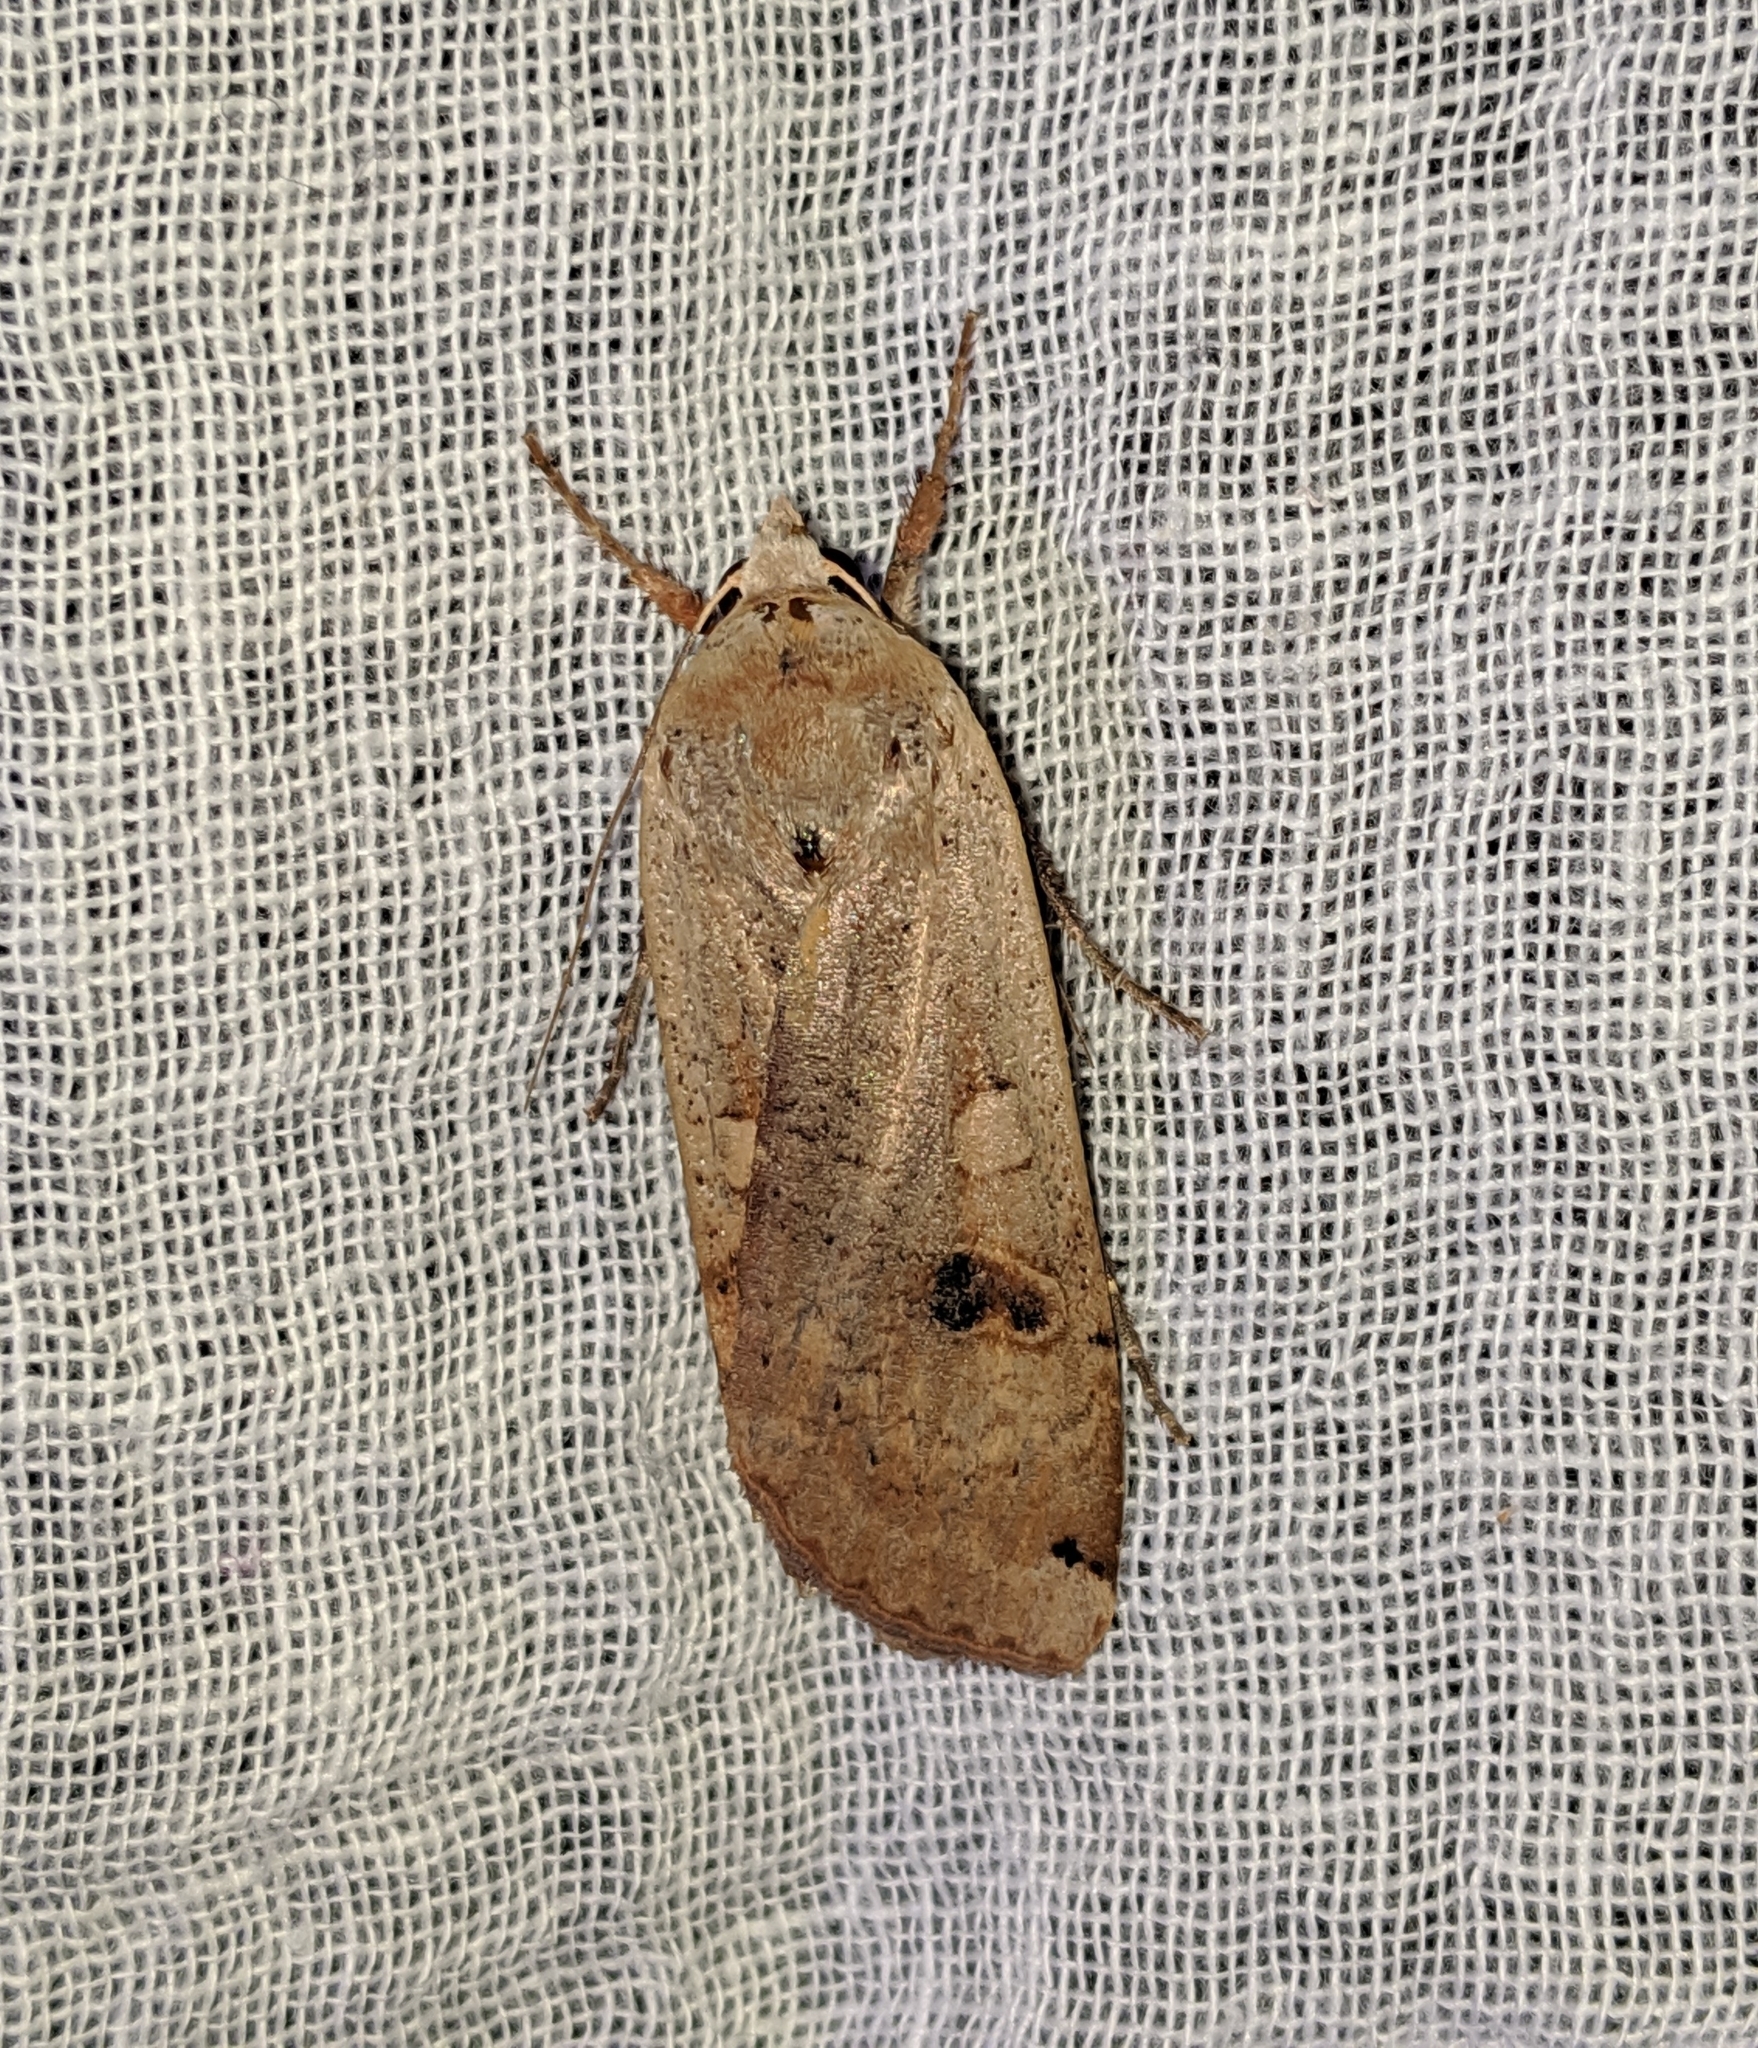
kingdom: Animalia
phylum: Arthropoda
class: Insecta
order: Lepidoptera
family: Noctuidae
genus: Noctua
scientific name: Noctua pronuba
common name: Large yellow underwing
